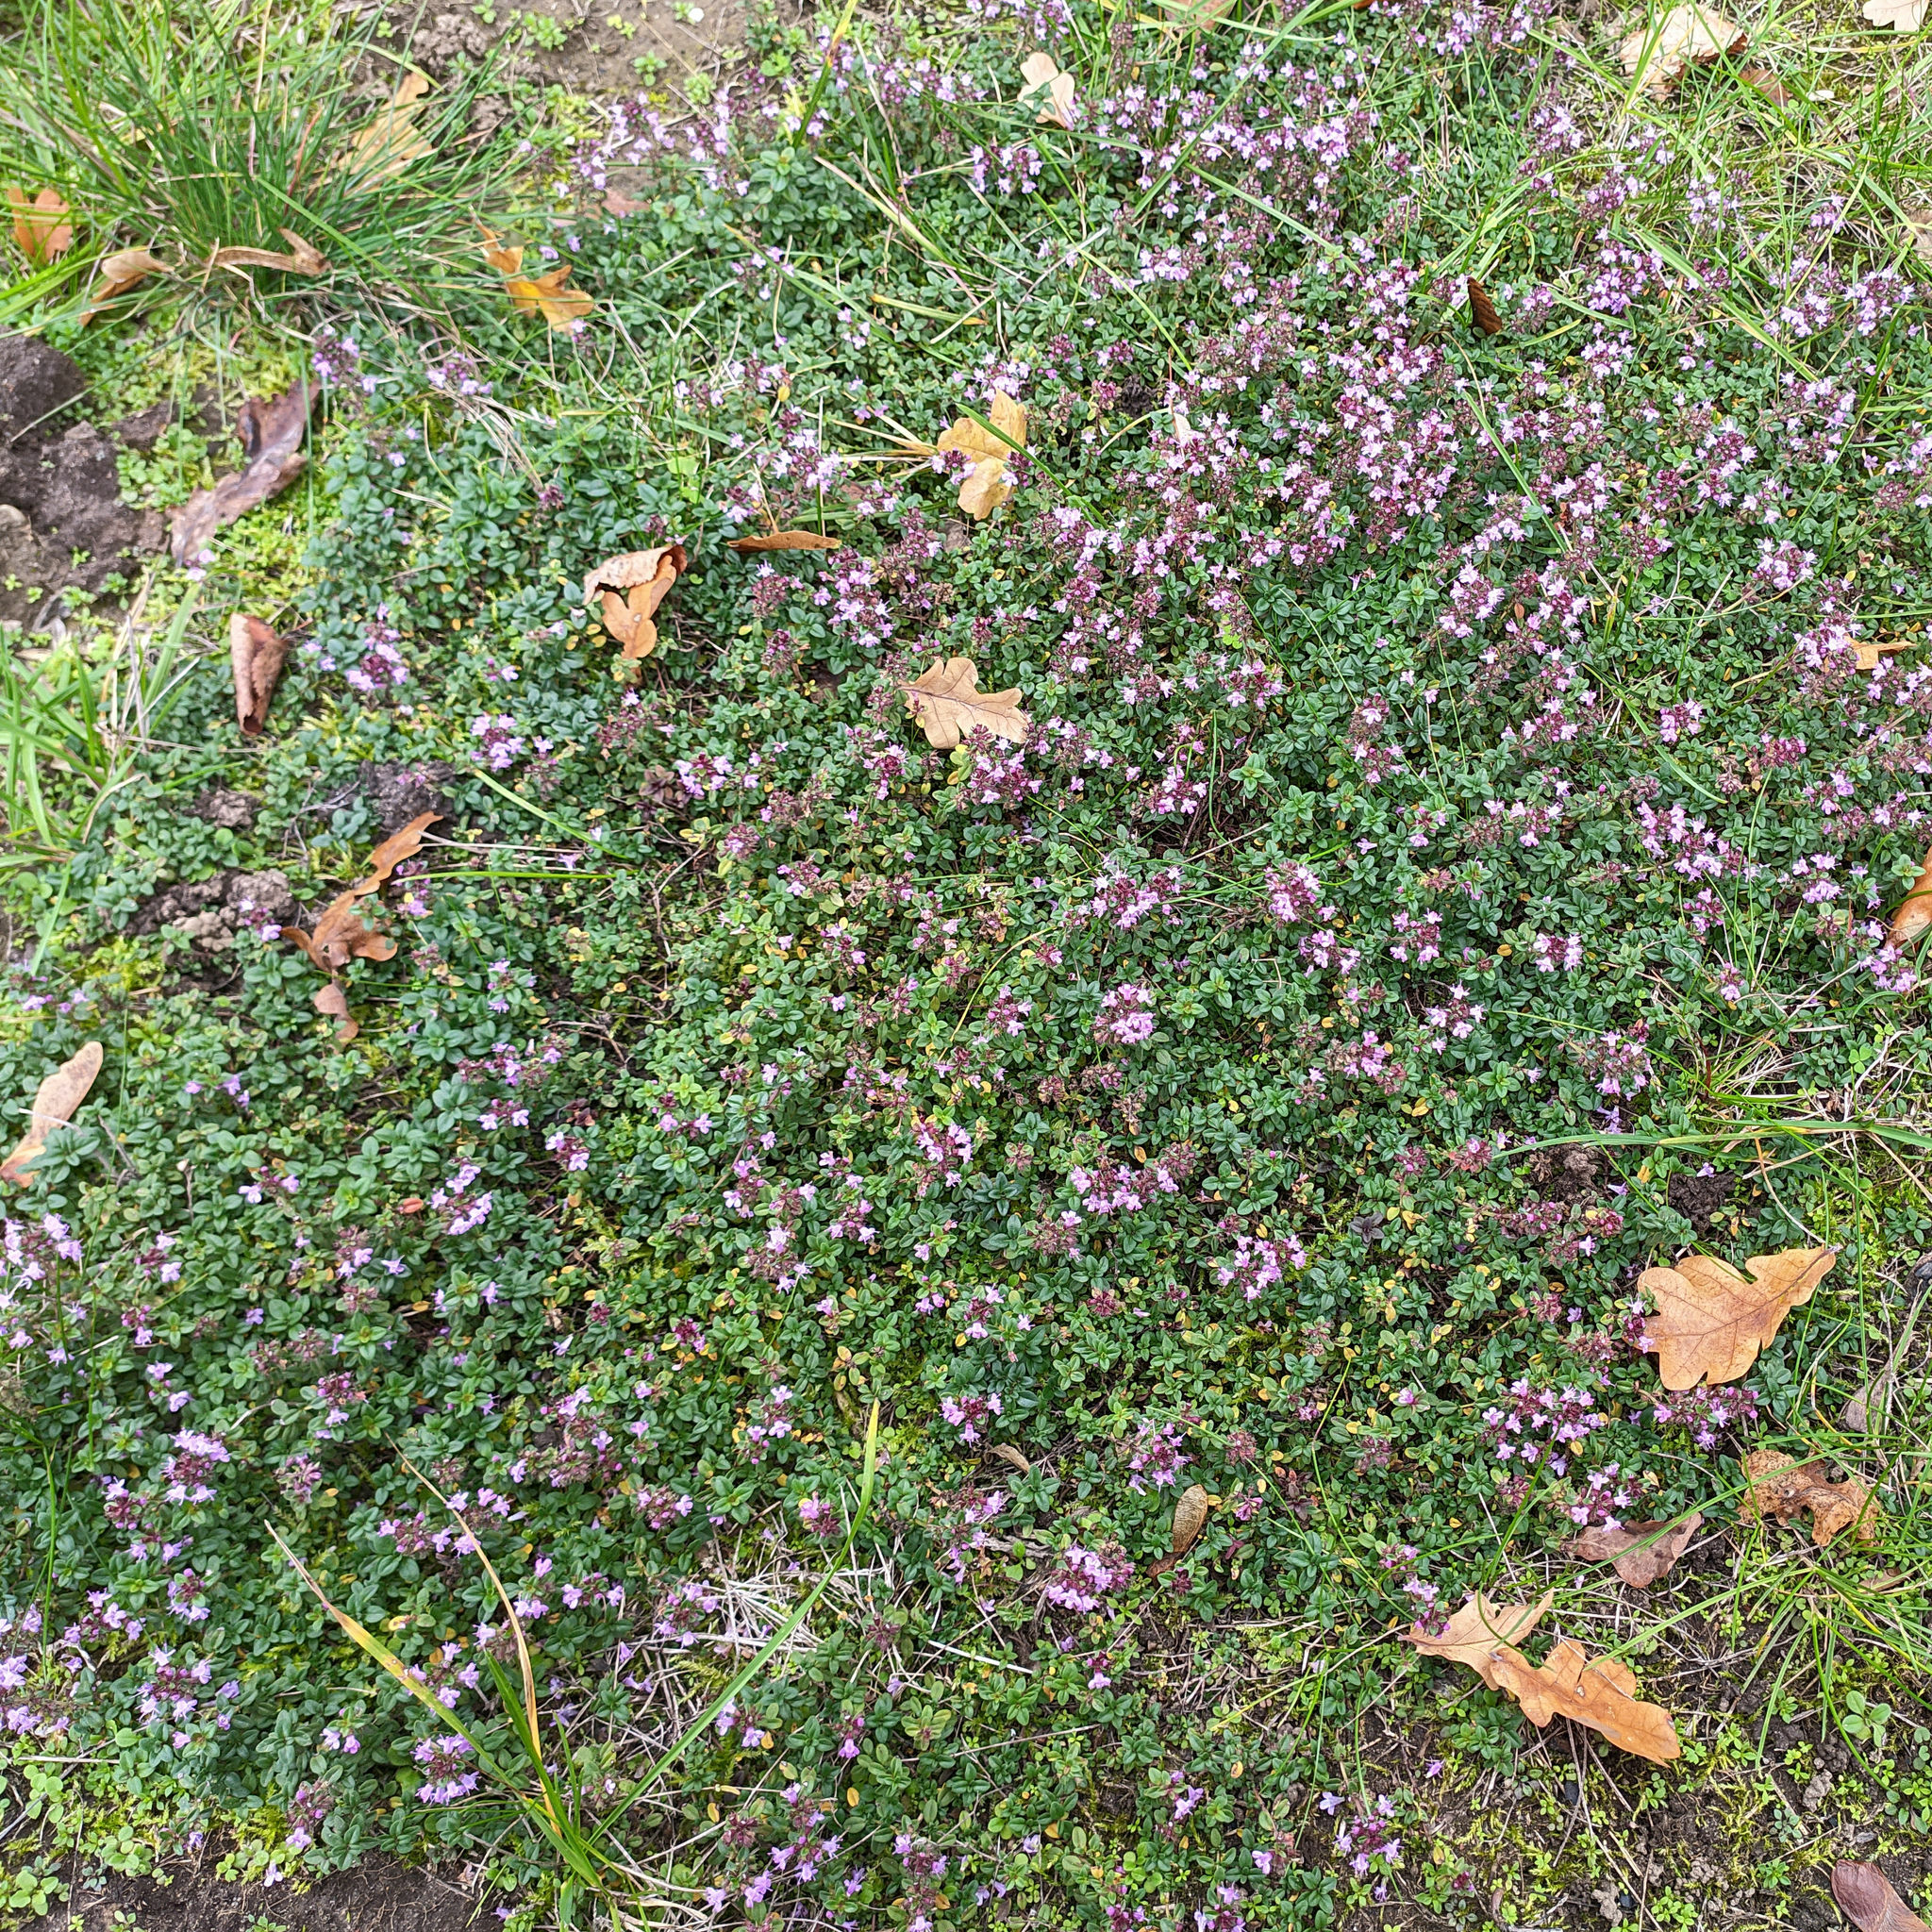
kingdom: Plantae
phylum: Tracheophyta
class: Magnoliopsida
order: Lamiales
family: Lamiaceae
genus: Thymus
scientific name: Thymus pulegioides
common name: Large thyme
